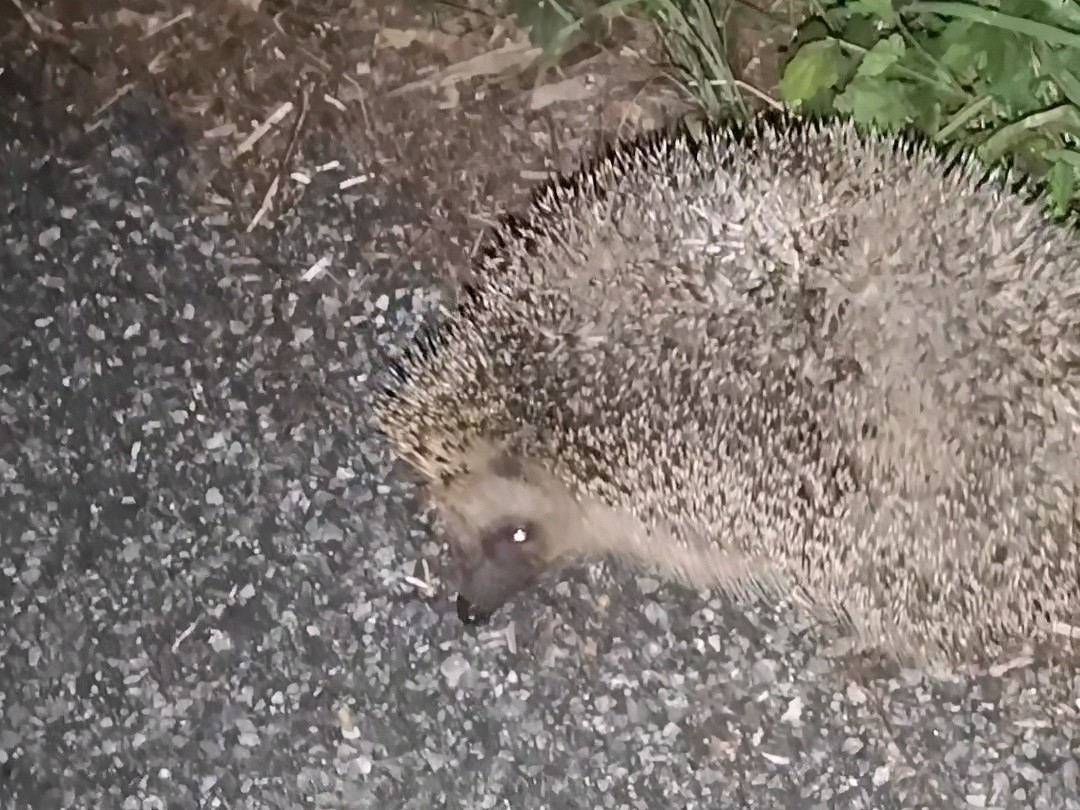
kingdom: Animalia
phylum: Chordata
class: Mammalia
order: Erinaceomorpha
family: Erinaceidae
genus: Erinaceus
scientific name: Erinaceus europaeus
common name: West european hedgehog
